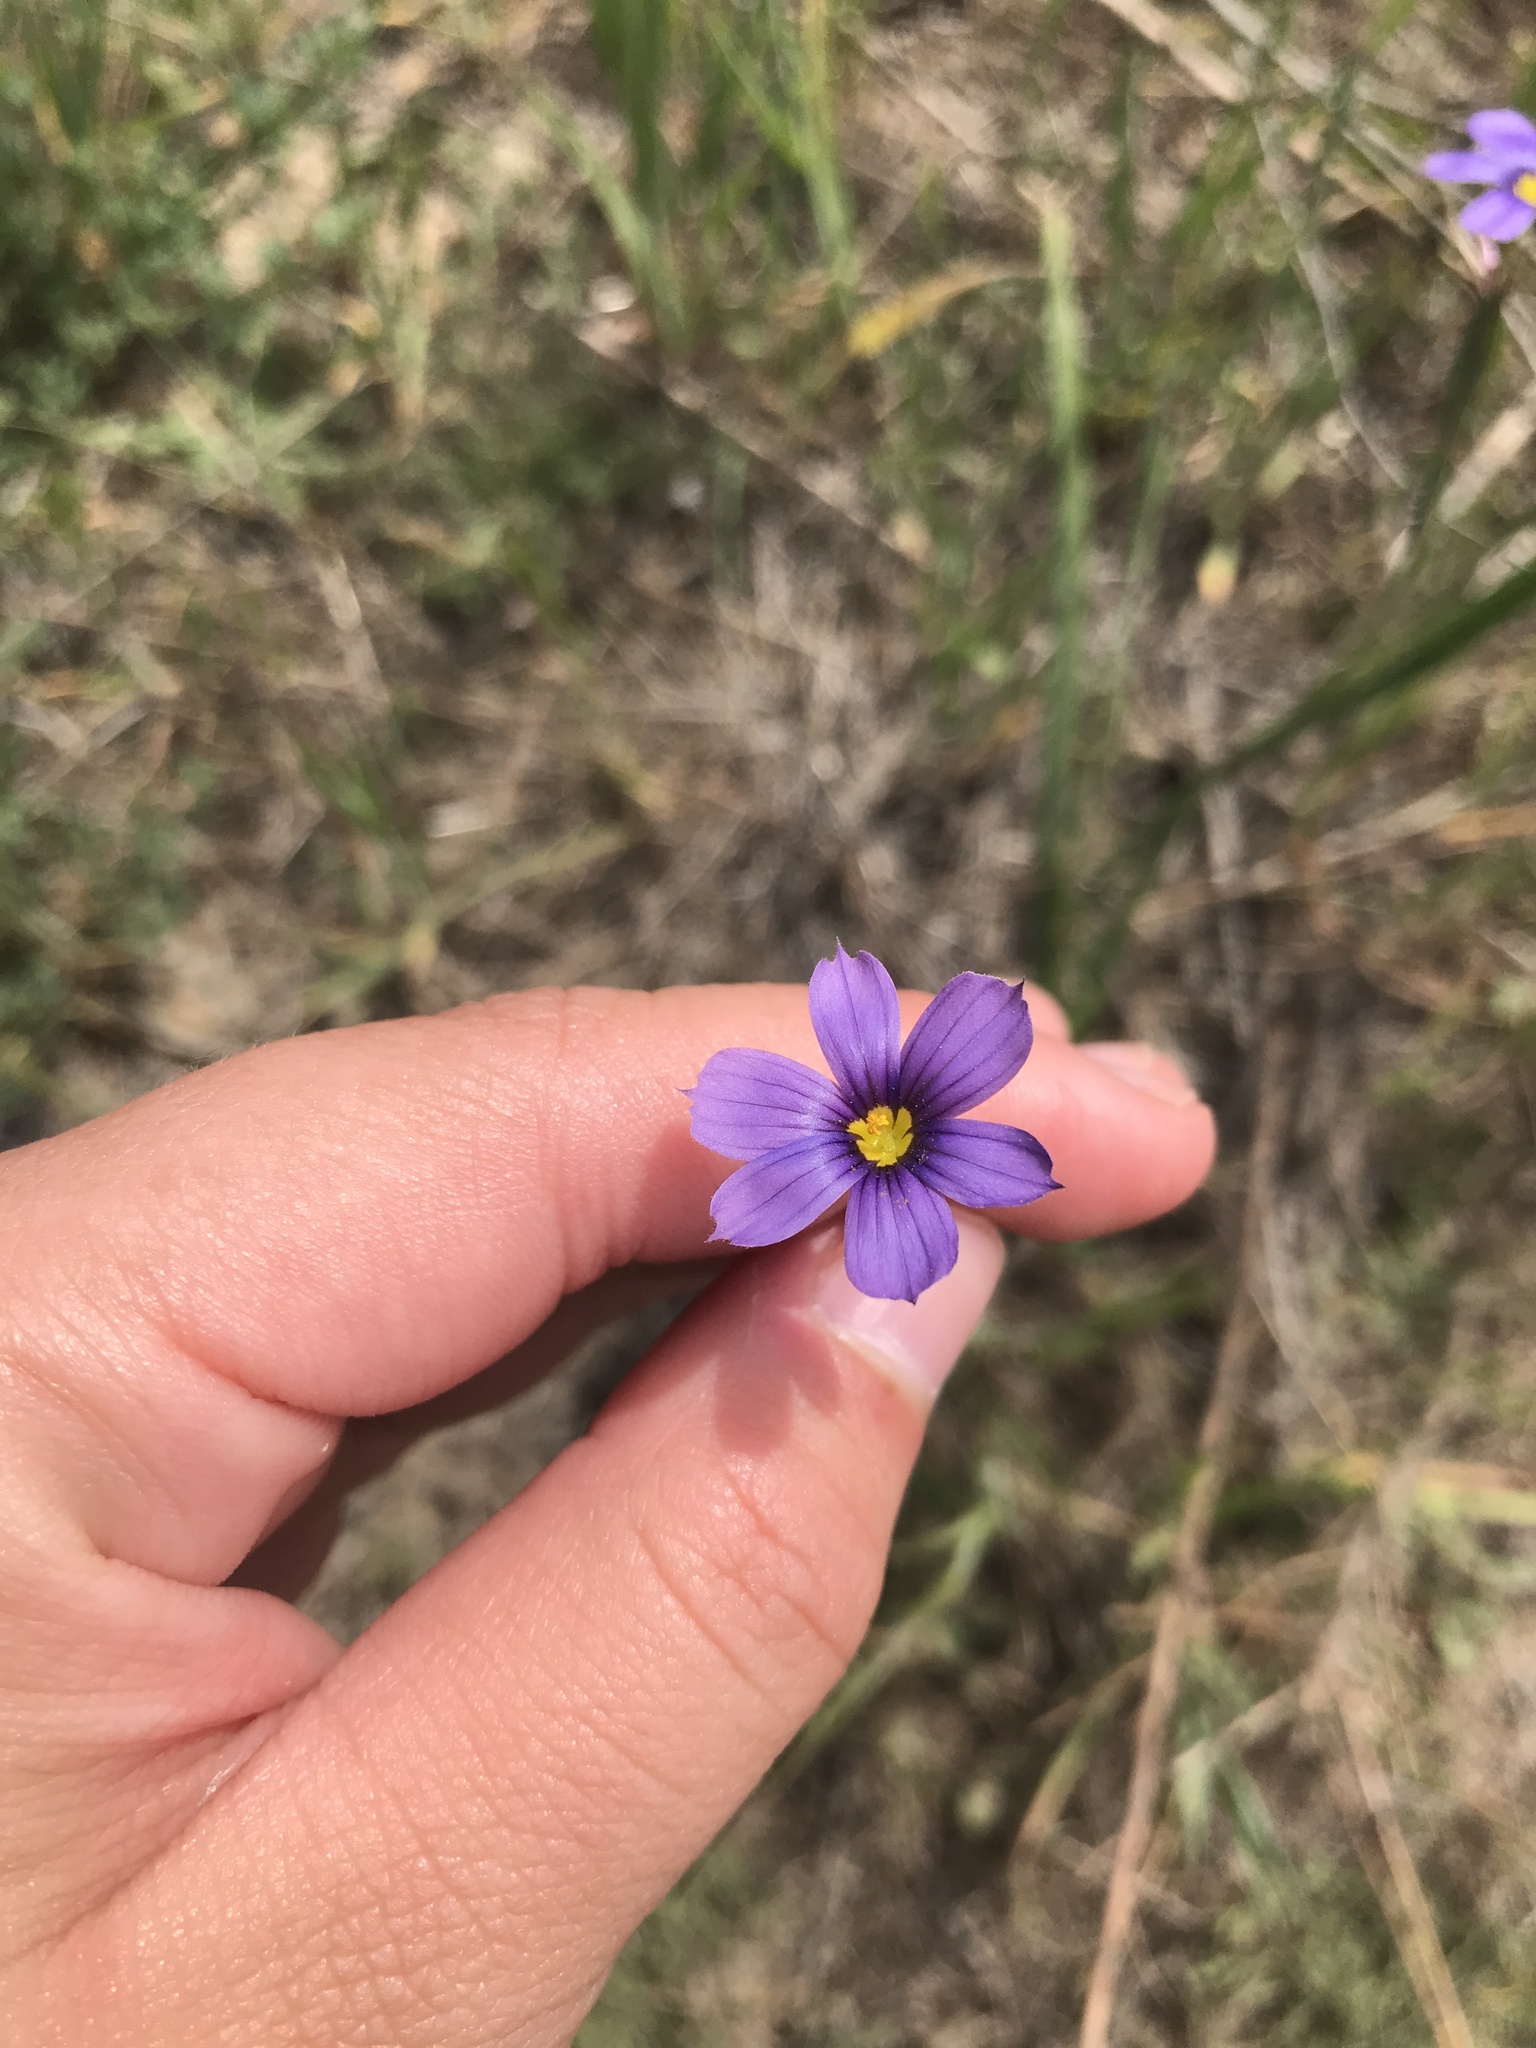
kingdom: Plantae
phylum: Tracheophyta
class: Liliopsida
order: Asparagales
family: Iridaceae
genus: Sisyrinchium
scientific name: Sisyrinchium bellum
